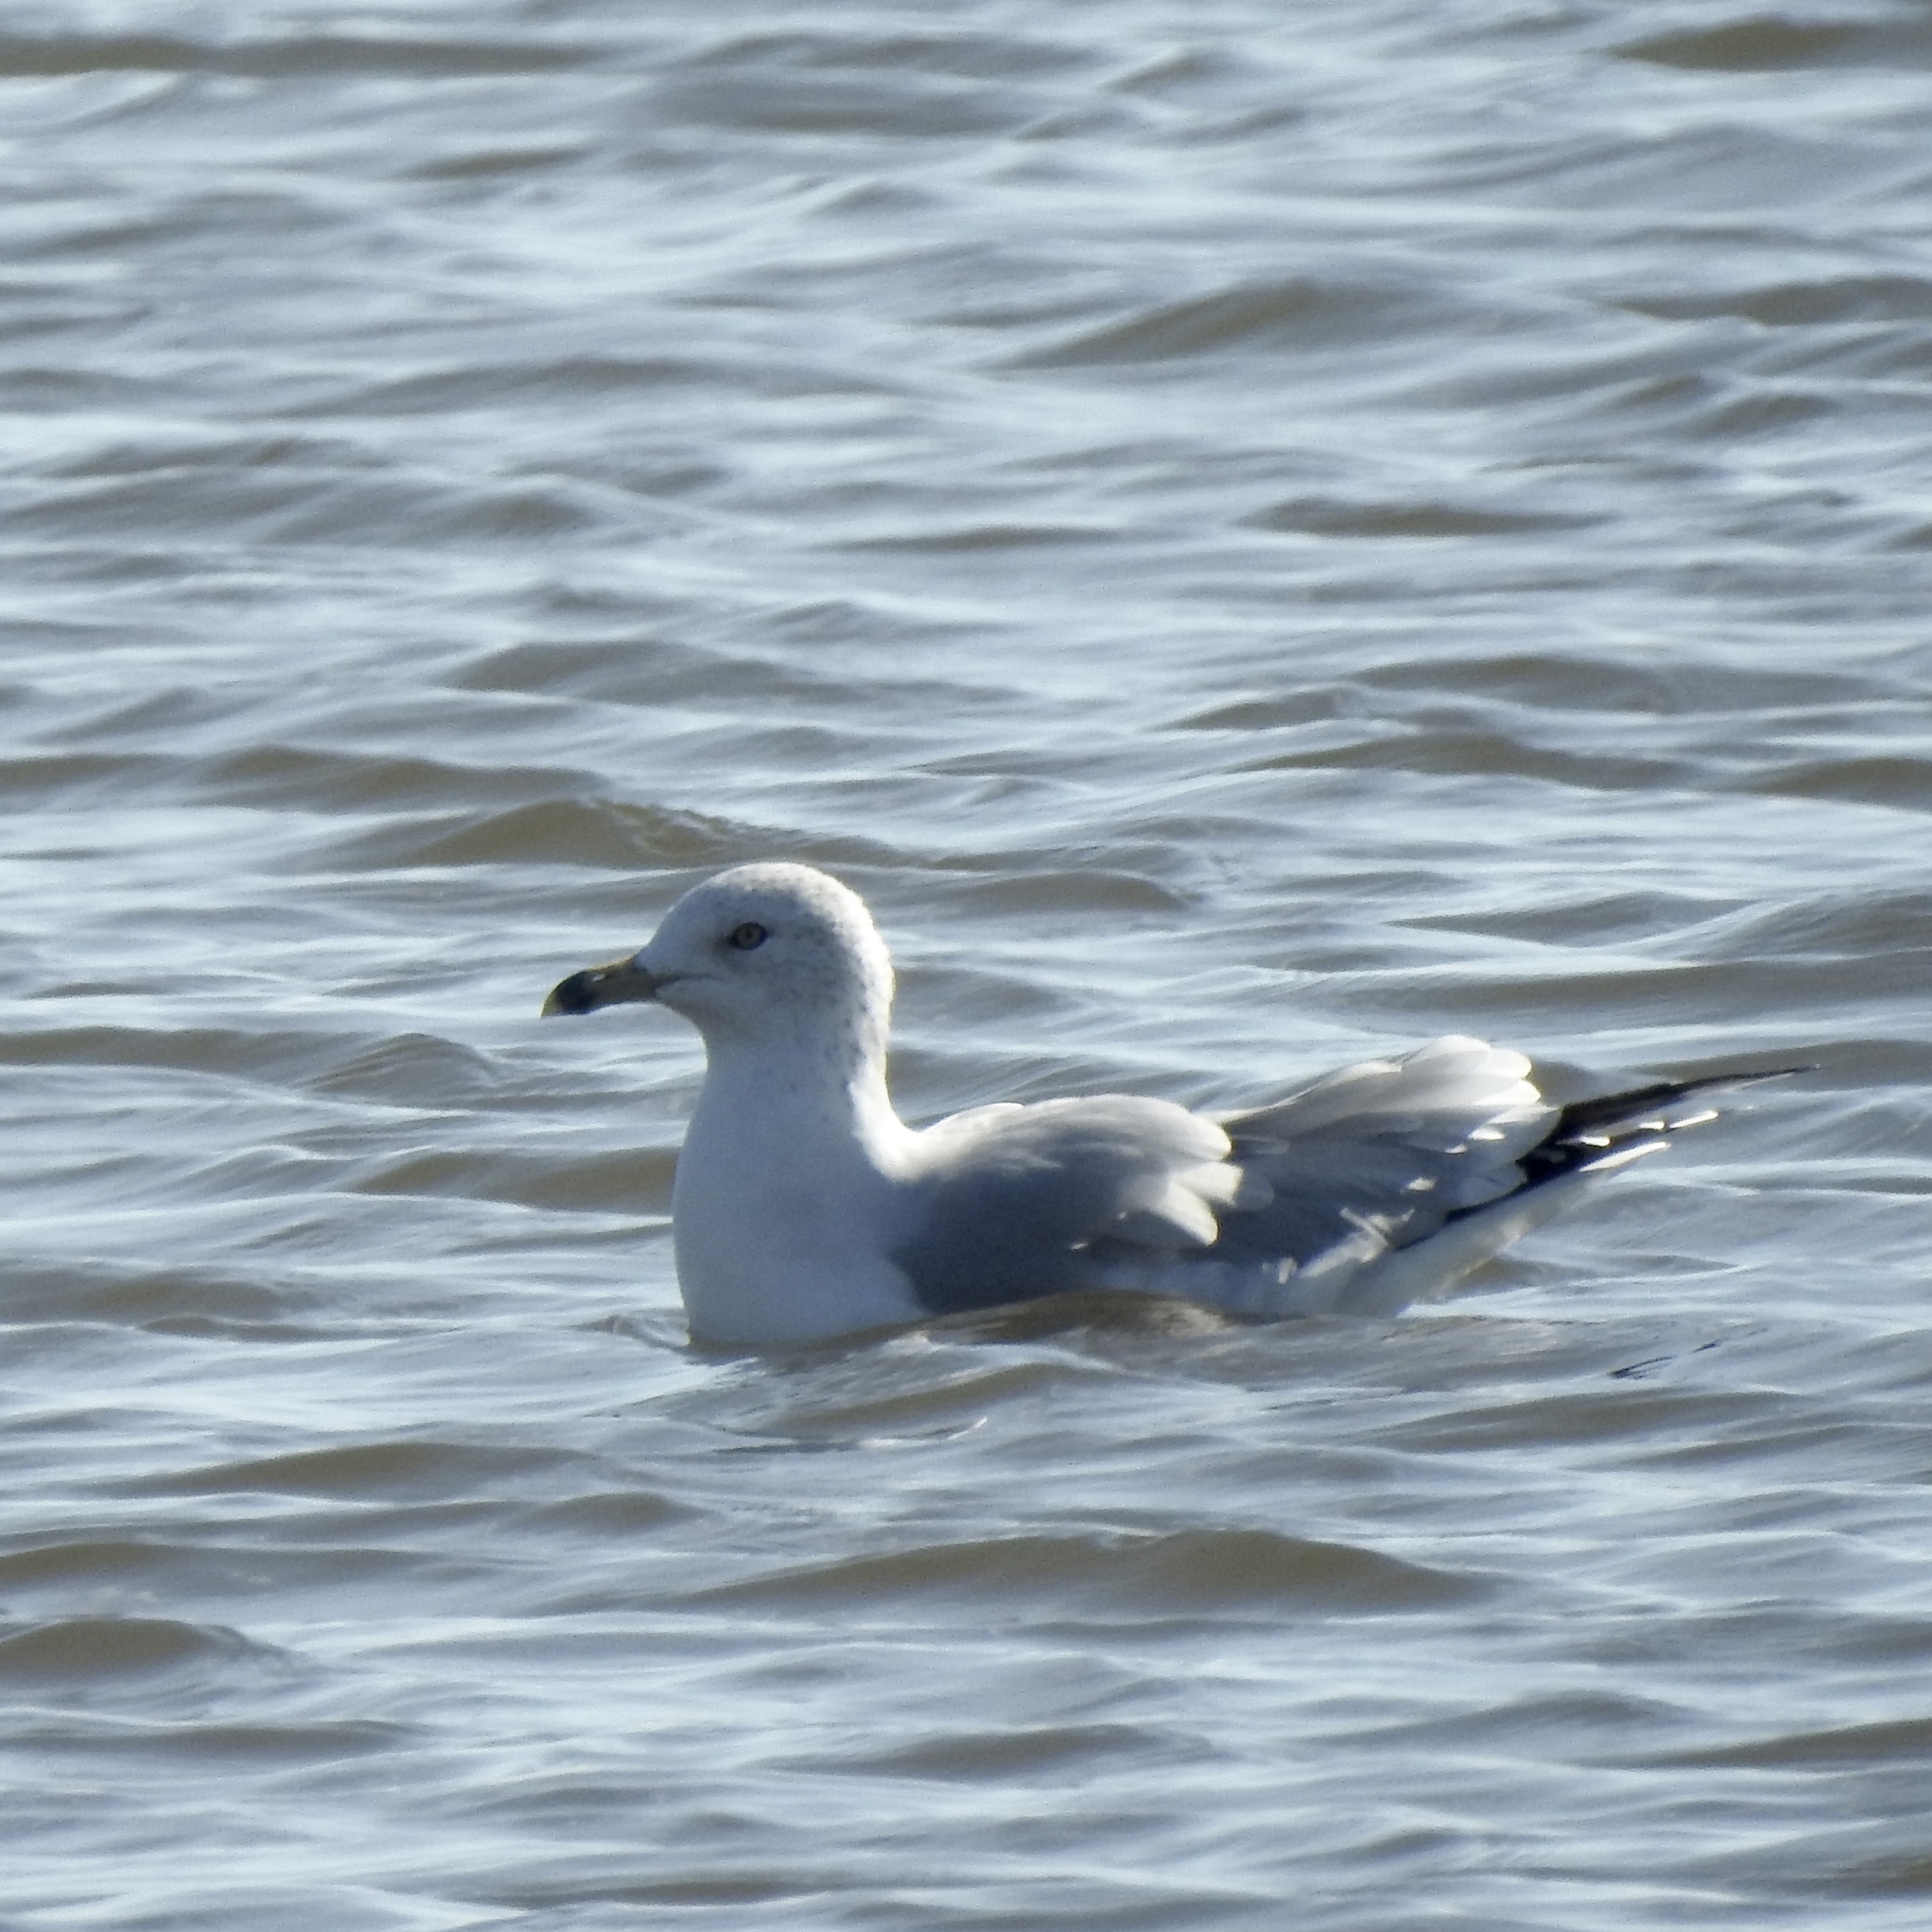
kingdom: Animalia
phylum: Chordata
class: Aves
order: Charadriiformes
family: Laridae
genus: Larus
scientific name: Larus delawarensis
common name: Ring-billed gull
